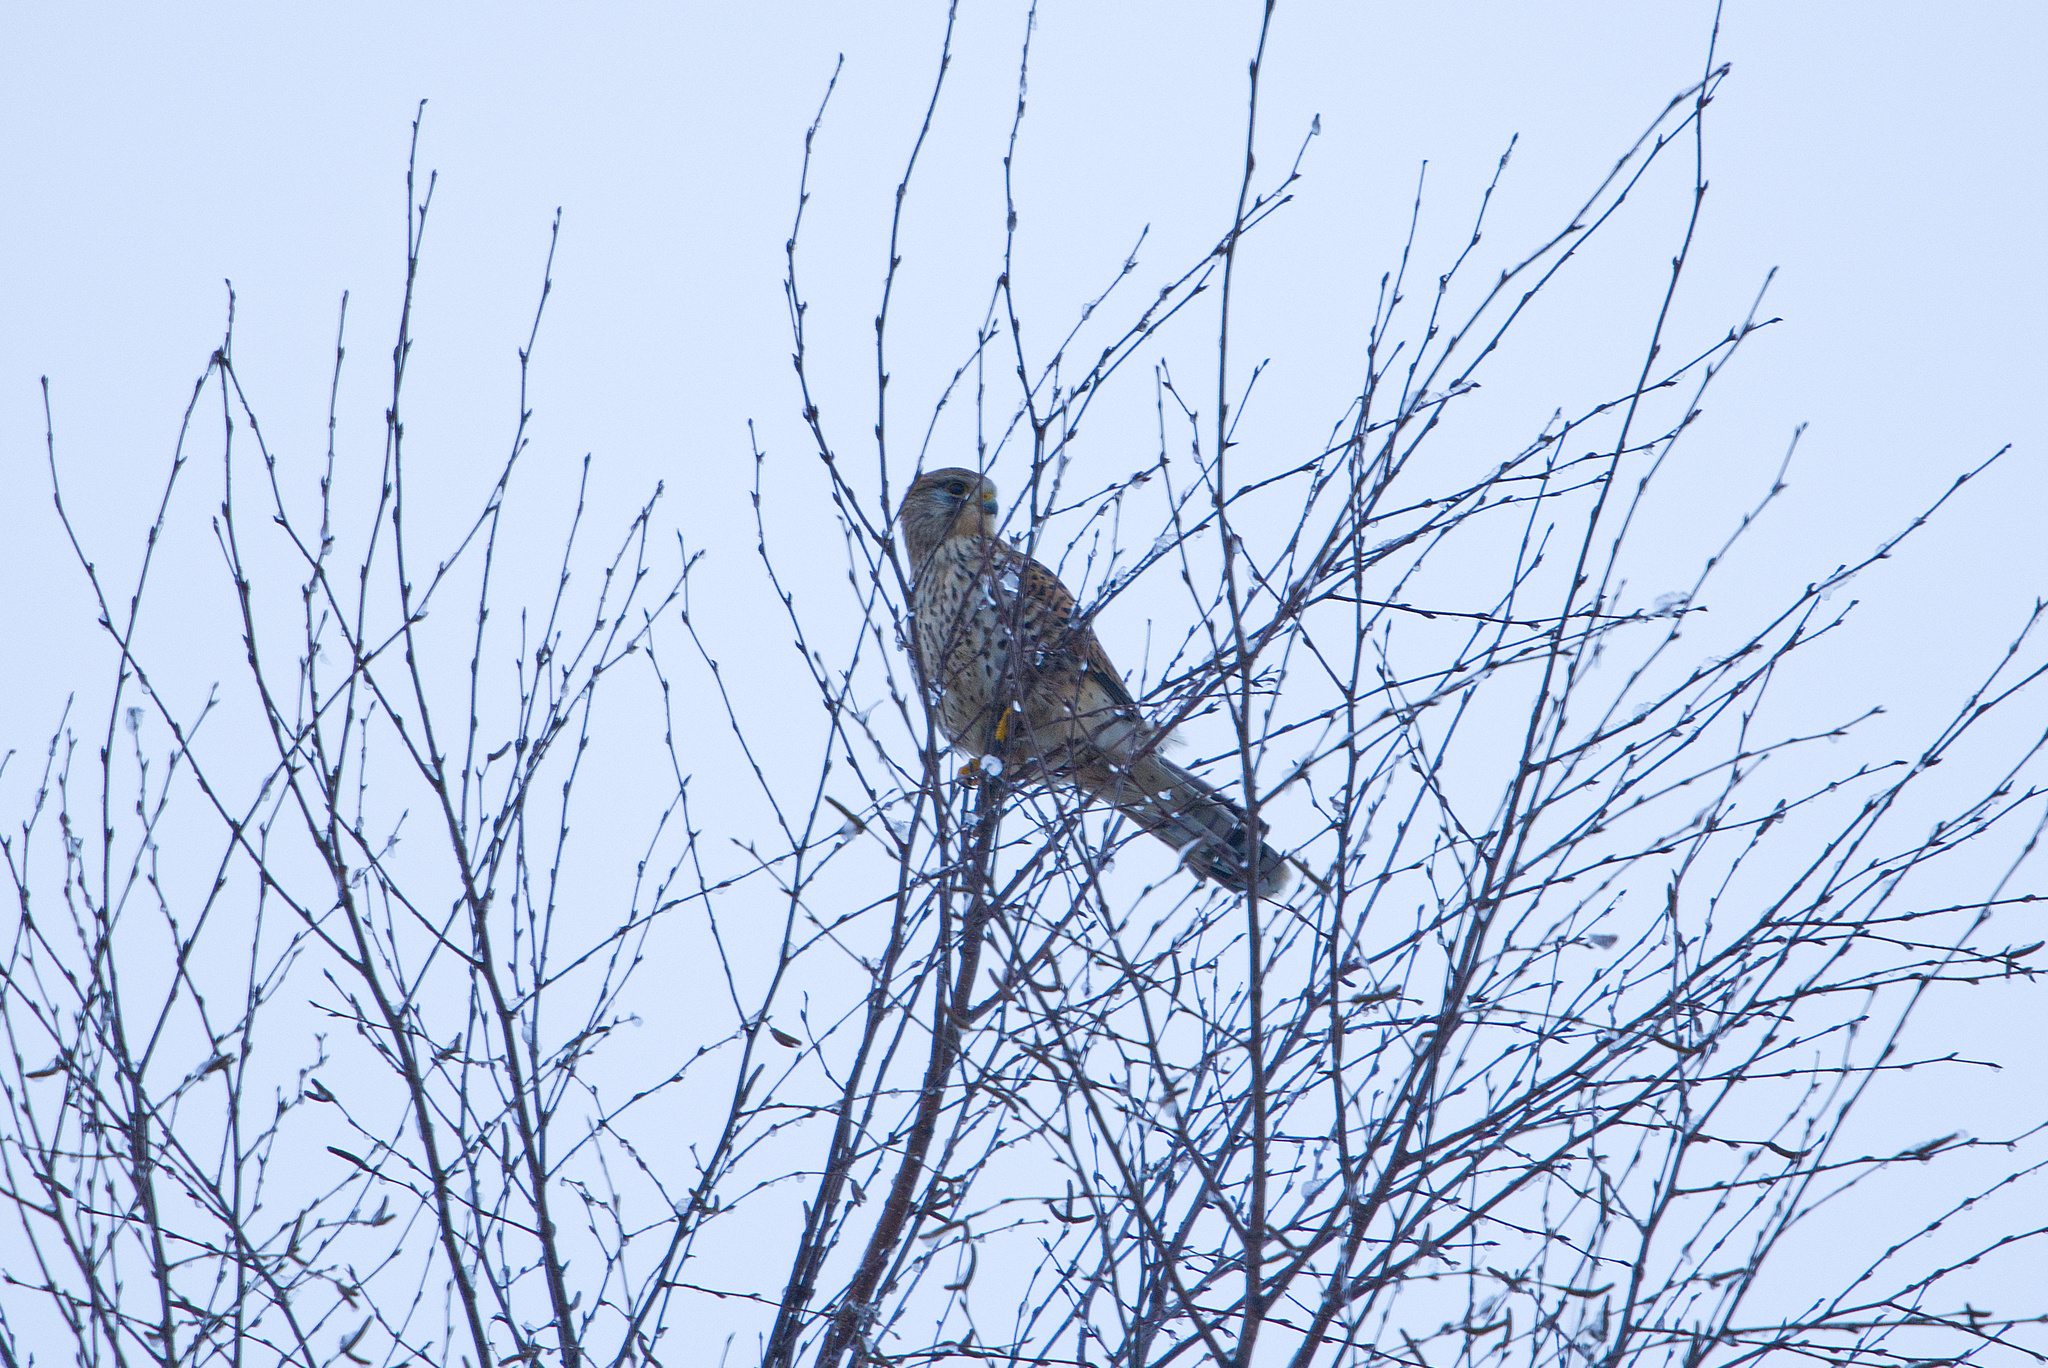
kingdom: Animalia
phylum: Chordata
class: Aves
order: Falconiformes
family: Falconidae
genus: Falco
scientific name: Falco tinnunculus
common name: Common kestrel
